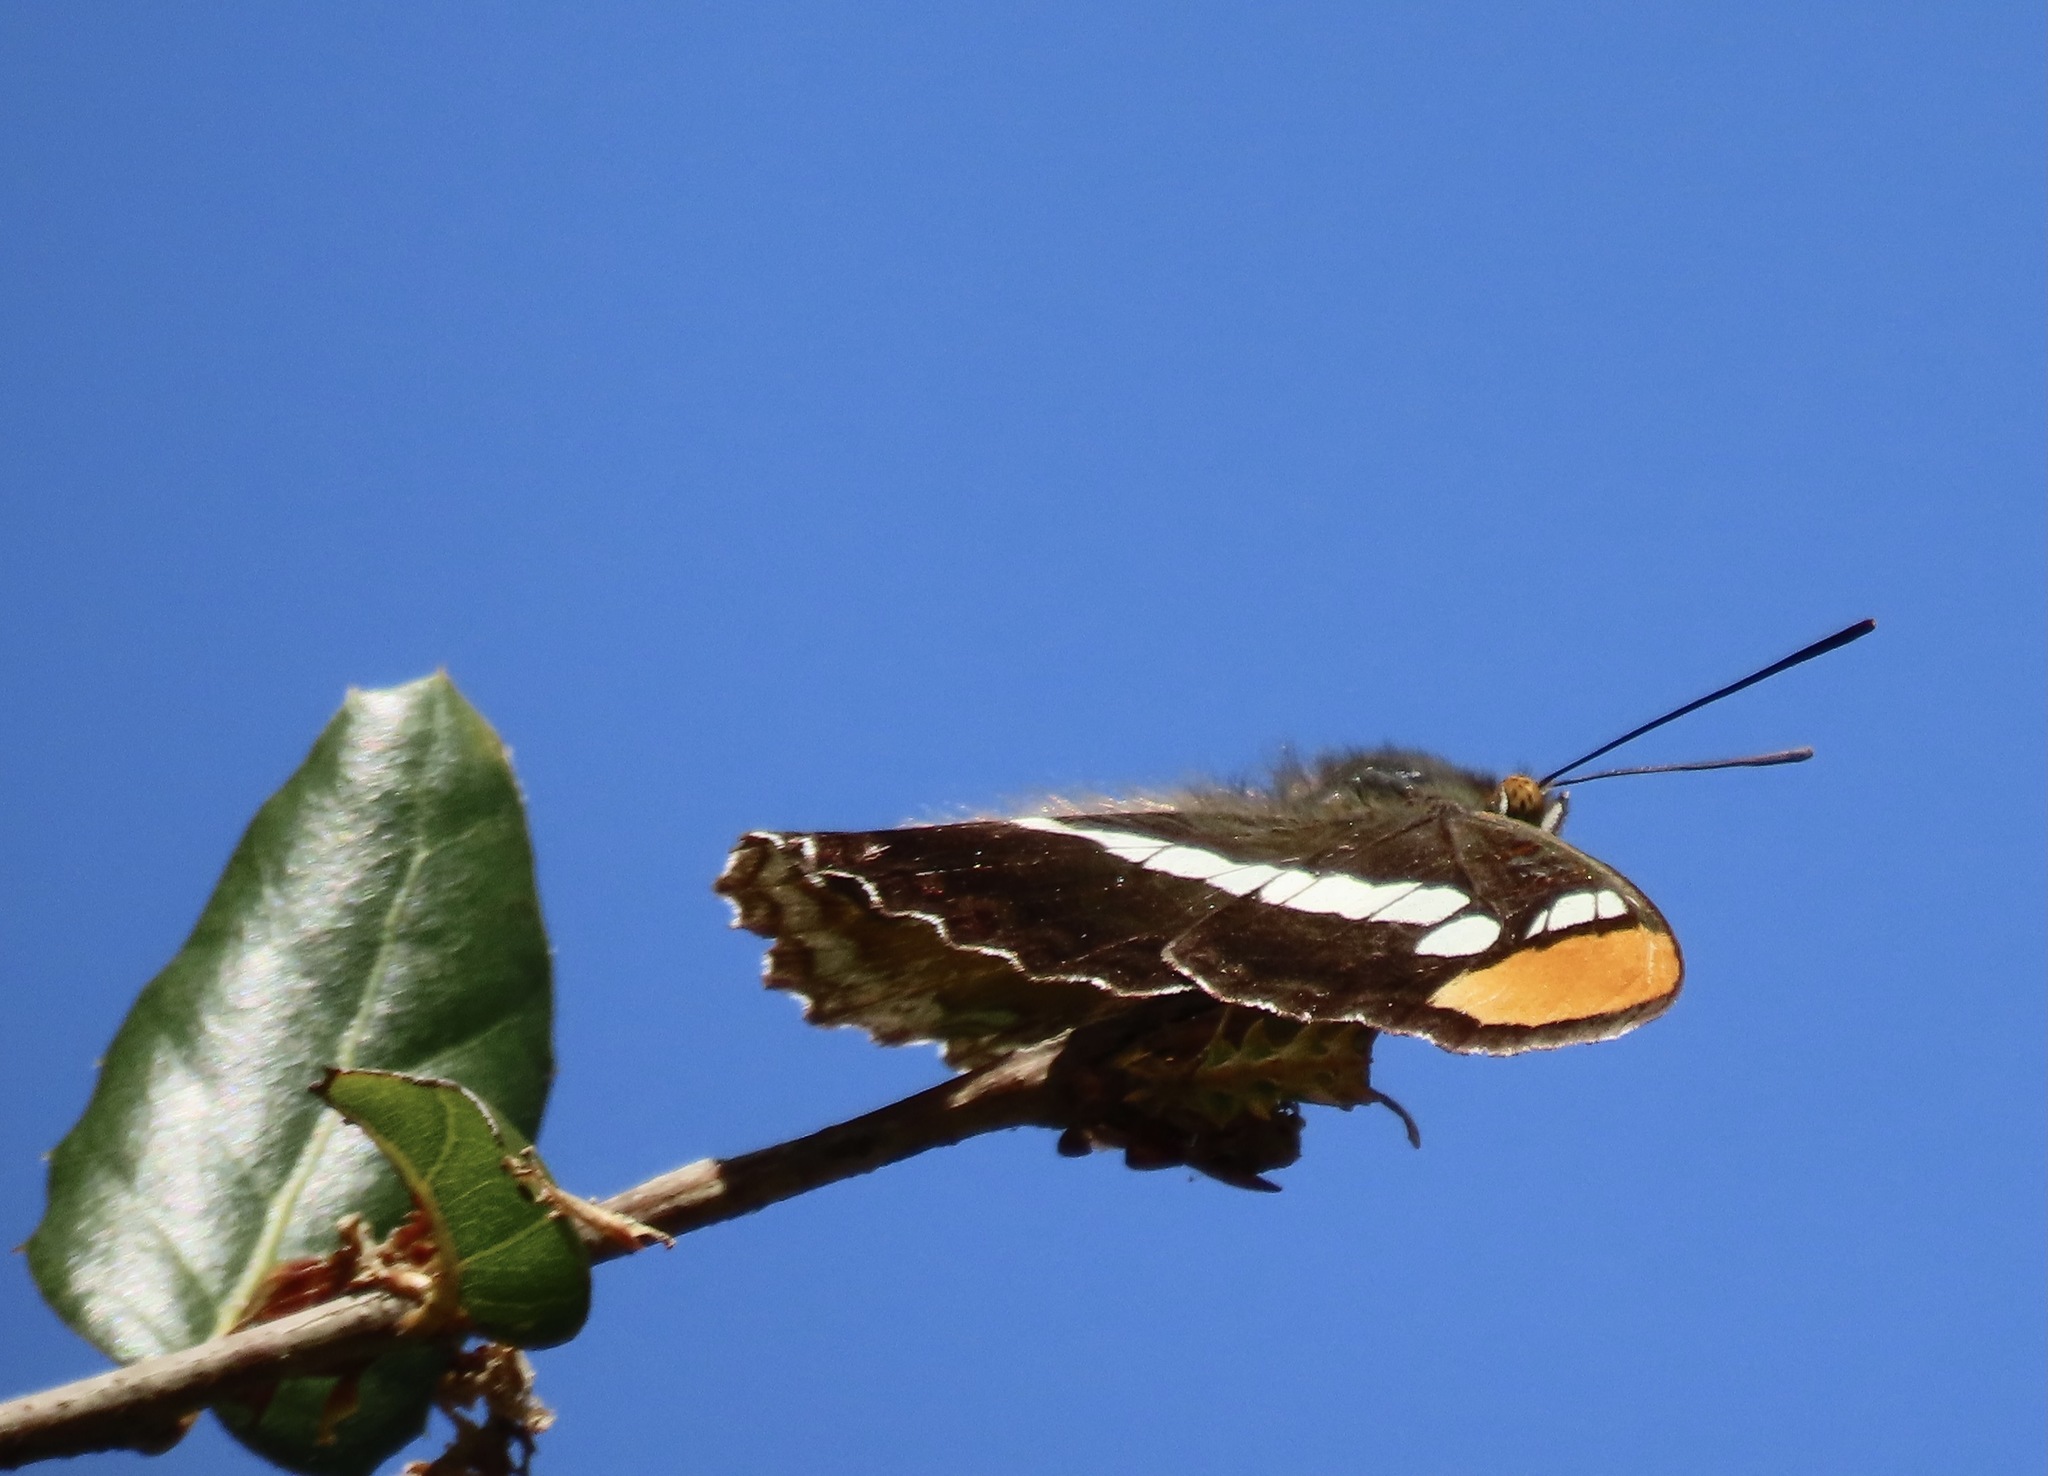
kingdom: Animalia
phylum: Arthropoda
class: Insecta
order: Lepidoptera
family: Nymphalidae
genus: Limenitis
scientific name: Limenitis bredowii
